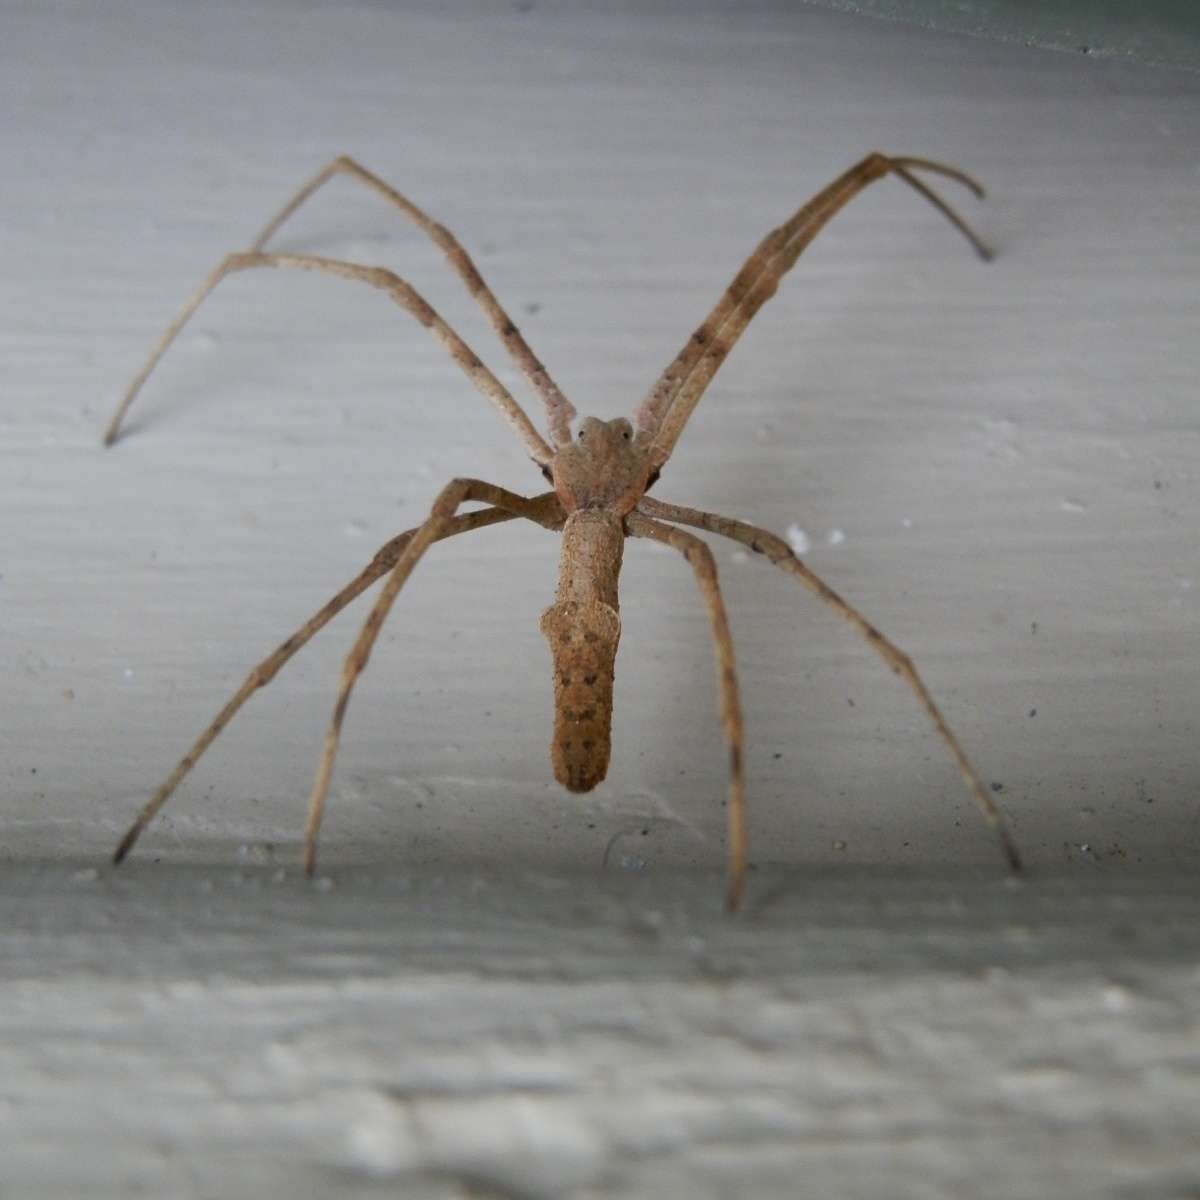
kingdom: Animalia
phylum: Arthropoda
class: Arachnida
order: Araneae
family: Deinopidae
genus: Deinopis
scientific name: Deinopis subrufa
